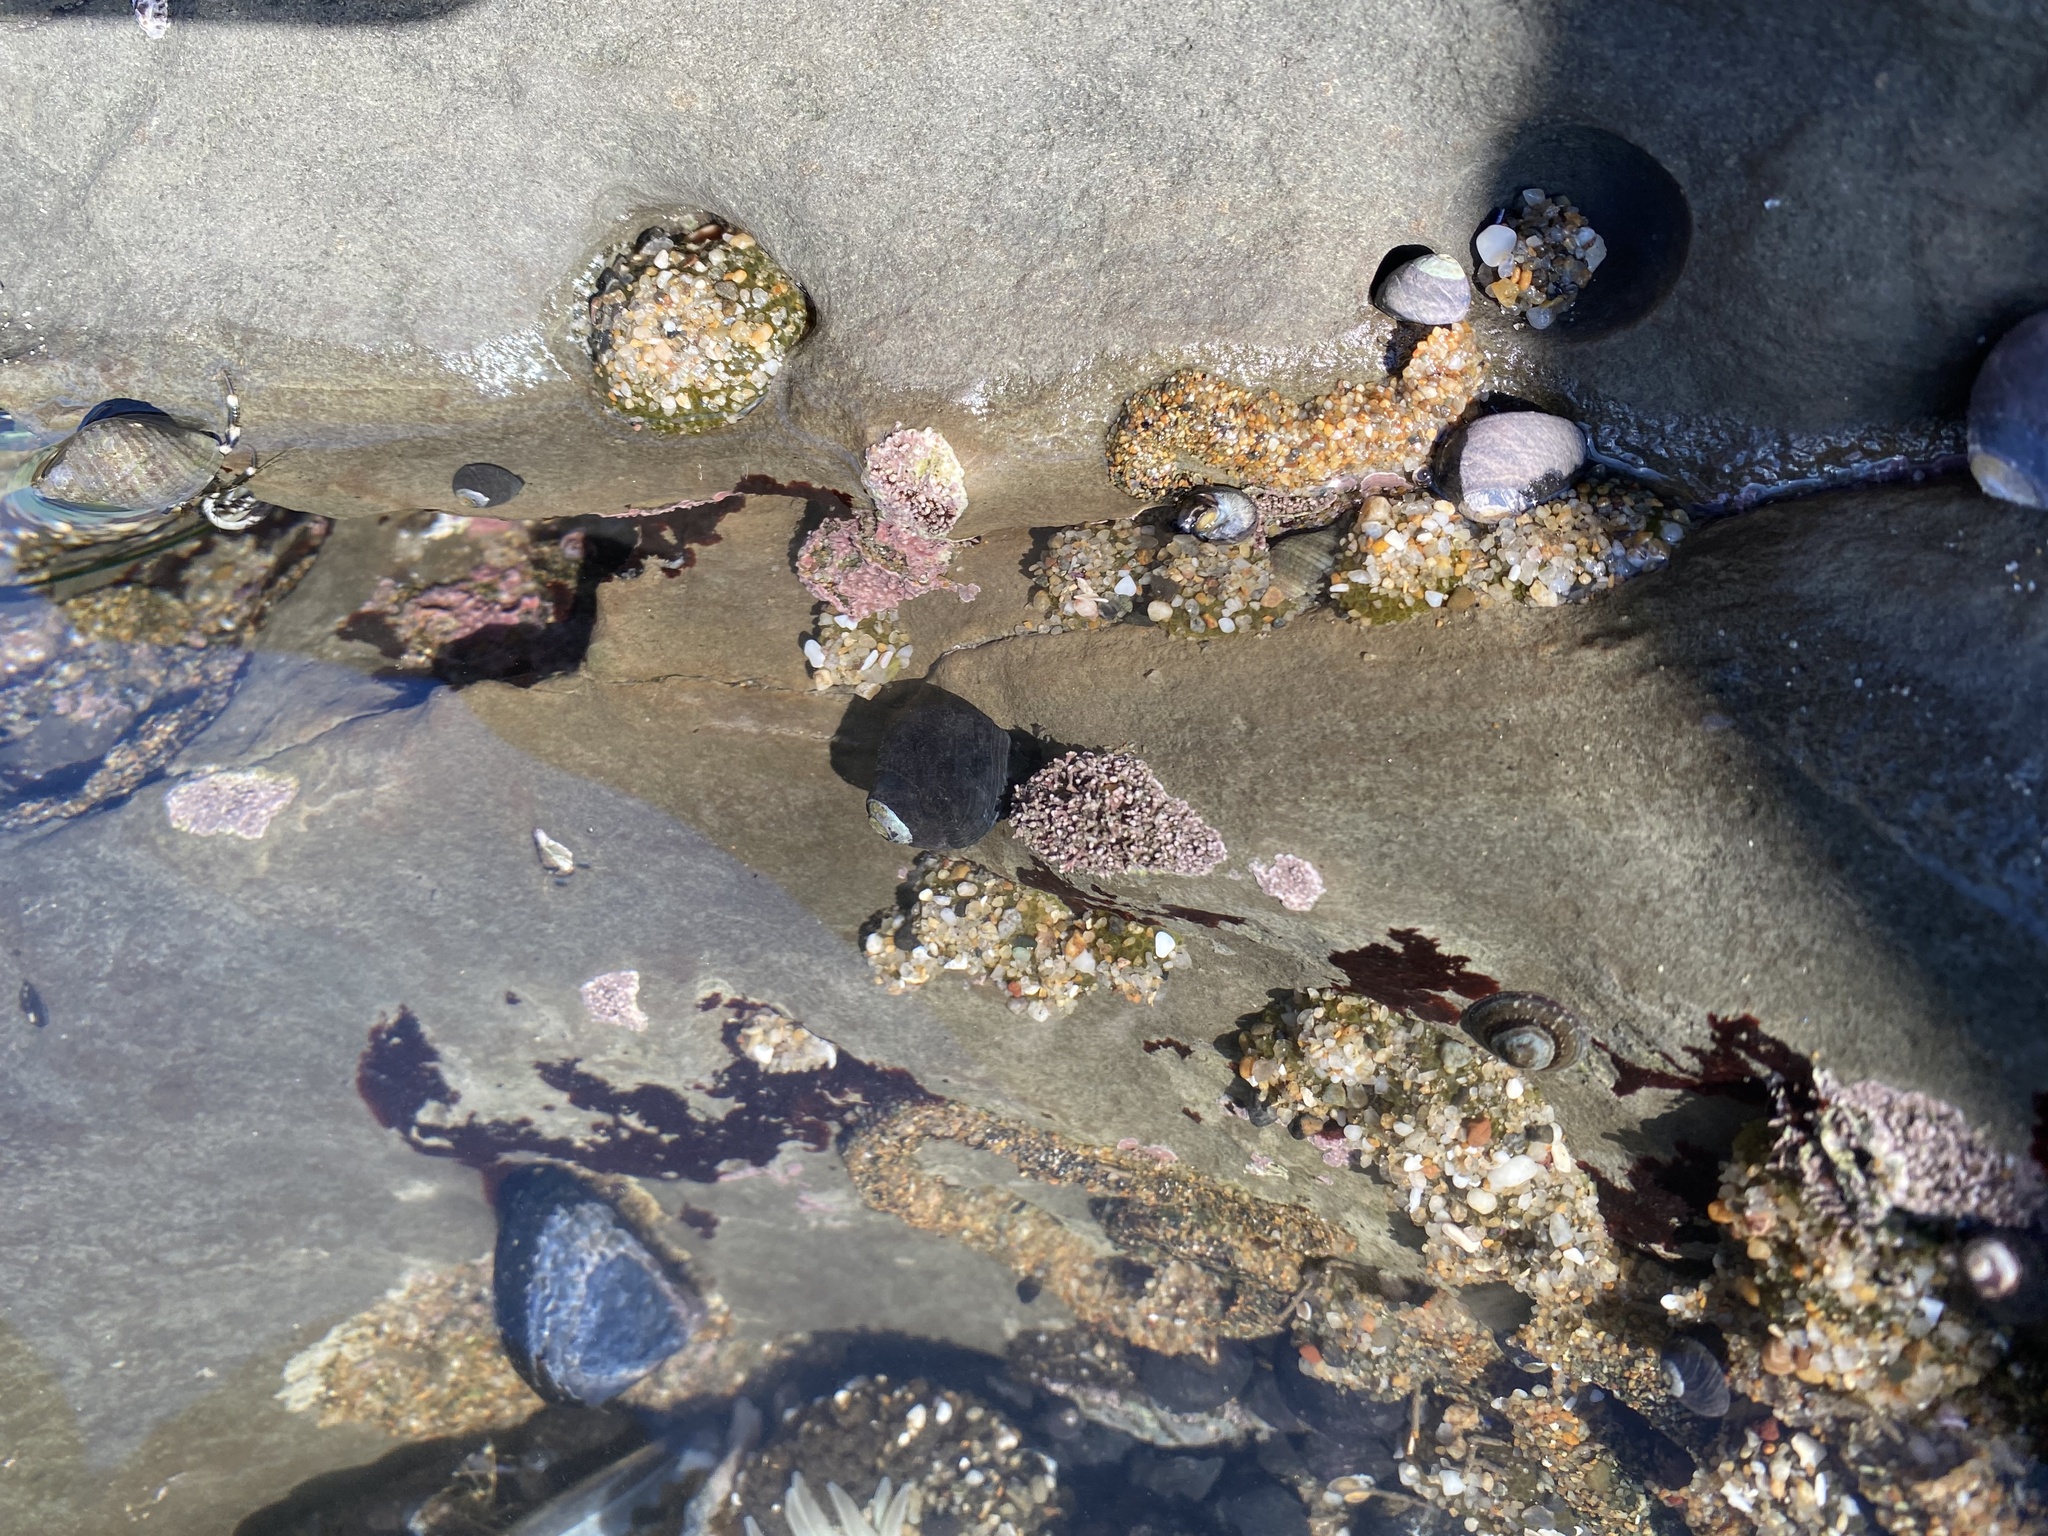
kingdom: Animalia
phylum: Arthropoda
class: Malacostraca
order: Decapoda
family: Paguridae
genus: Pagurus
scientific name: Pagurus samuelis
